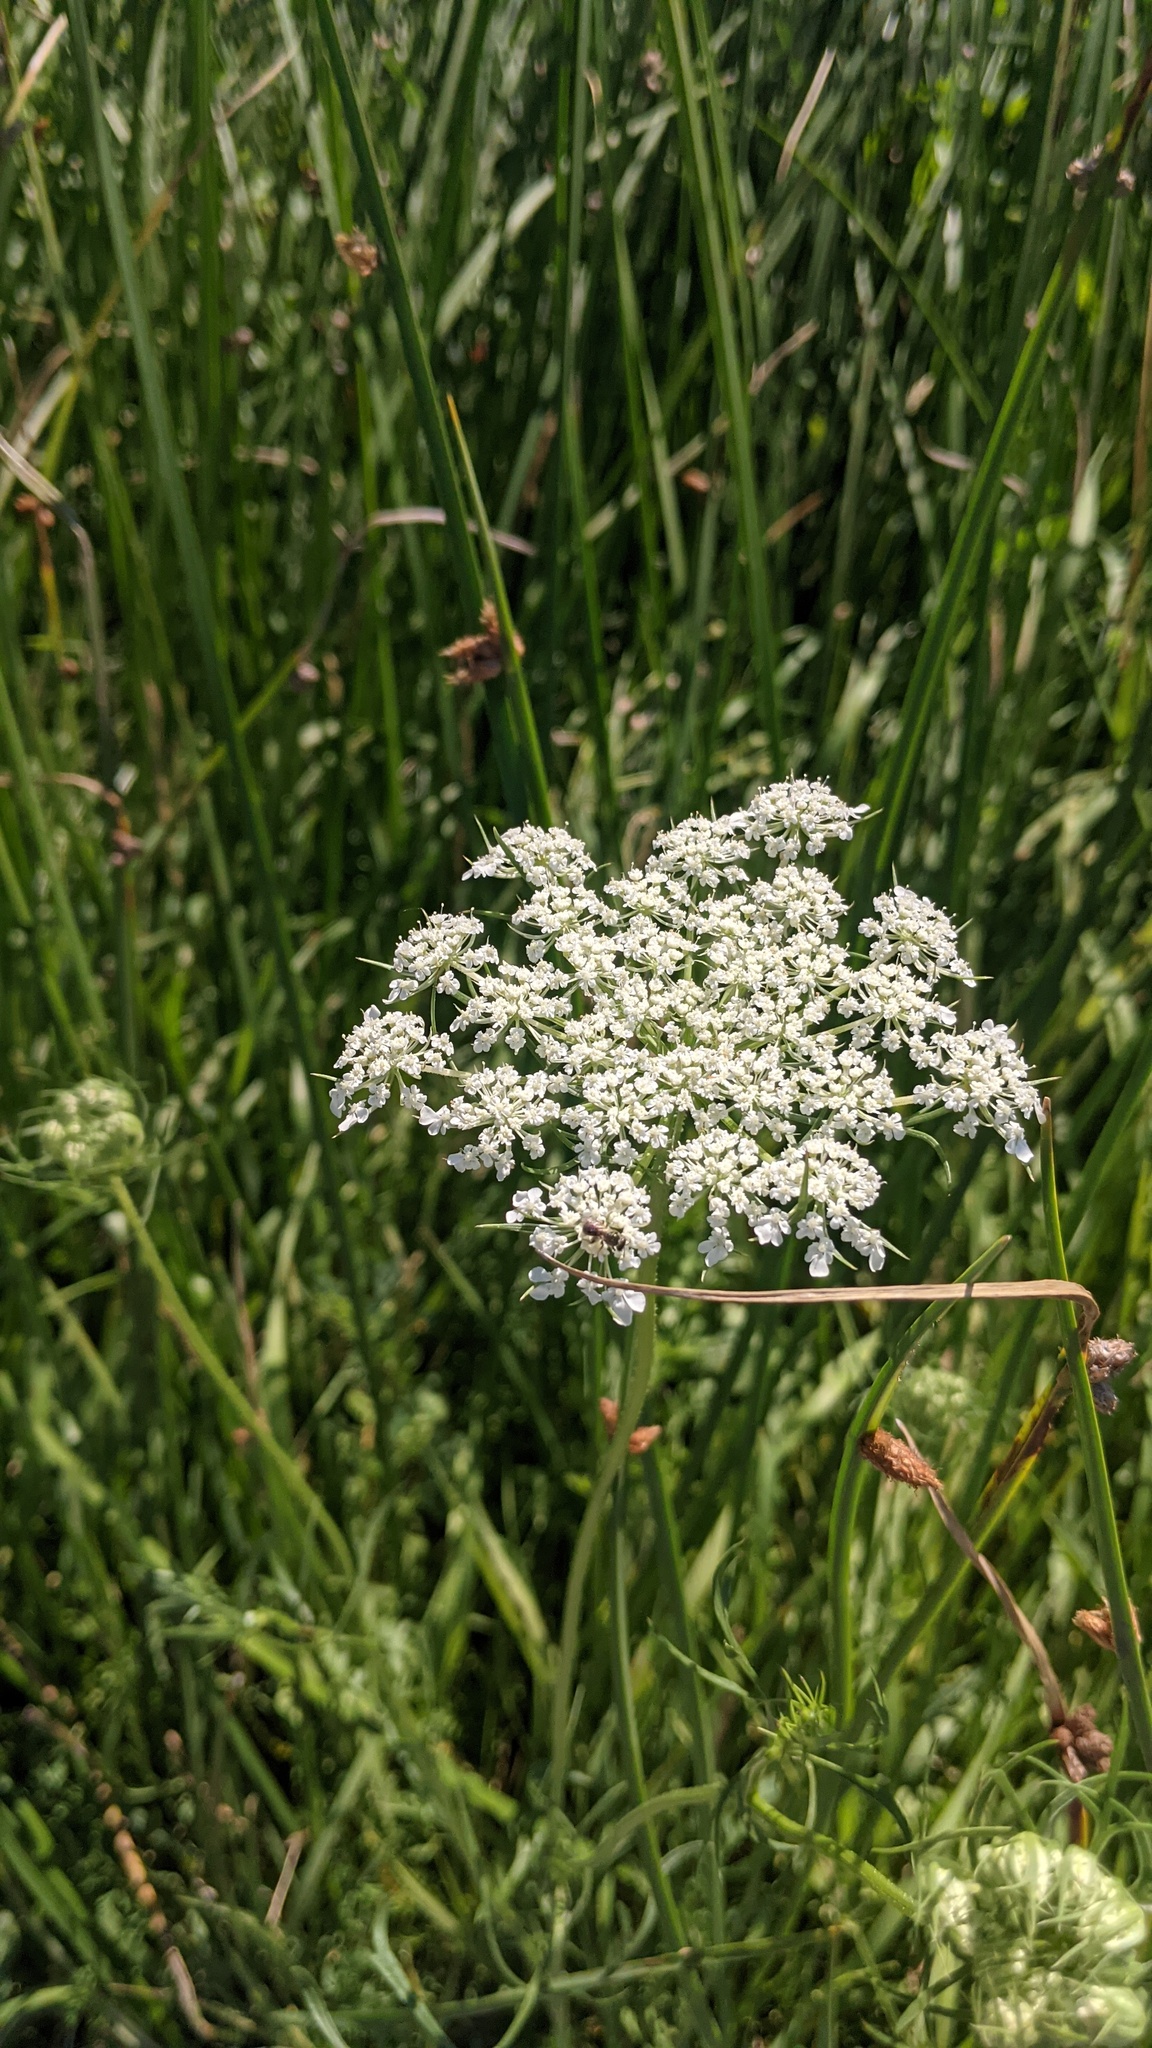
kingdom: Plantae
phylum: Tracheophyta
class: Magnoliopsida
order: Apiales
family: Apiaceae
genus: Daucus
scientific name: Daucus carota
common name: Wild carrot
